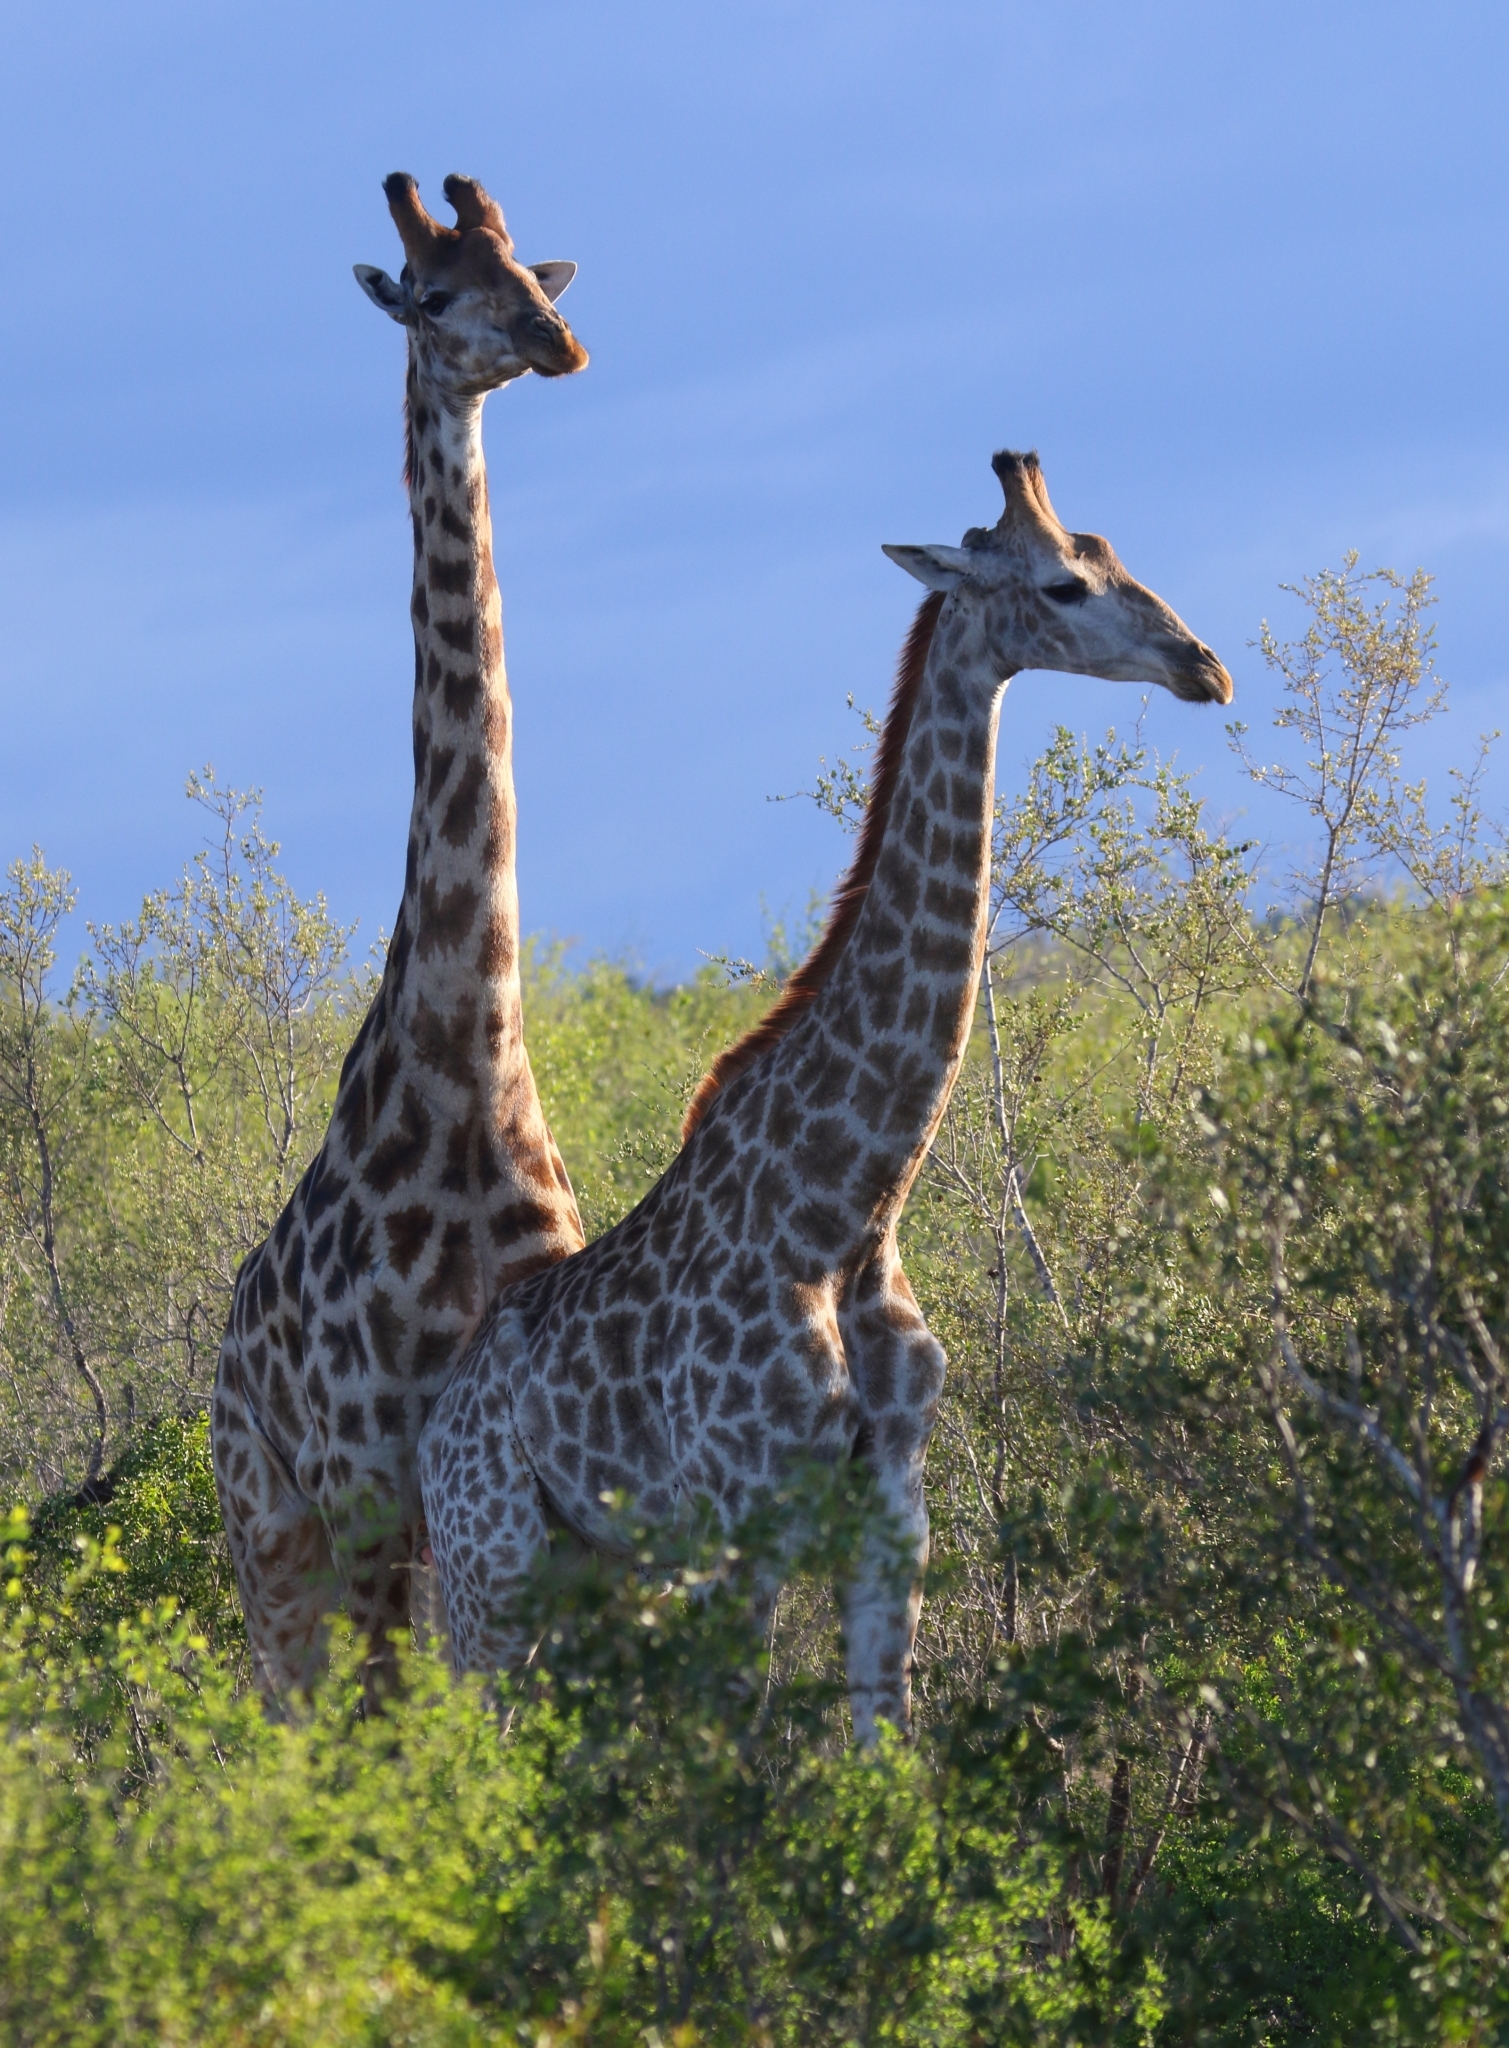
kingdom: Animalia
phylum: Chordata
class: Mammalia
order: Artiodactyla
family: Giraffidae
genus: Giraffa
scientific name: Giraffa giraffa
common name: Southern giraffe
